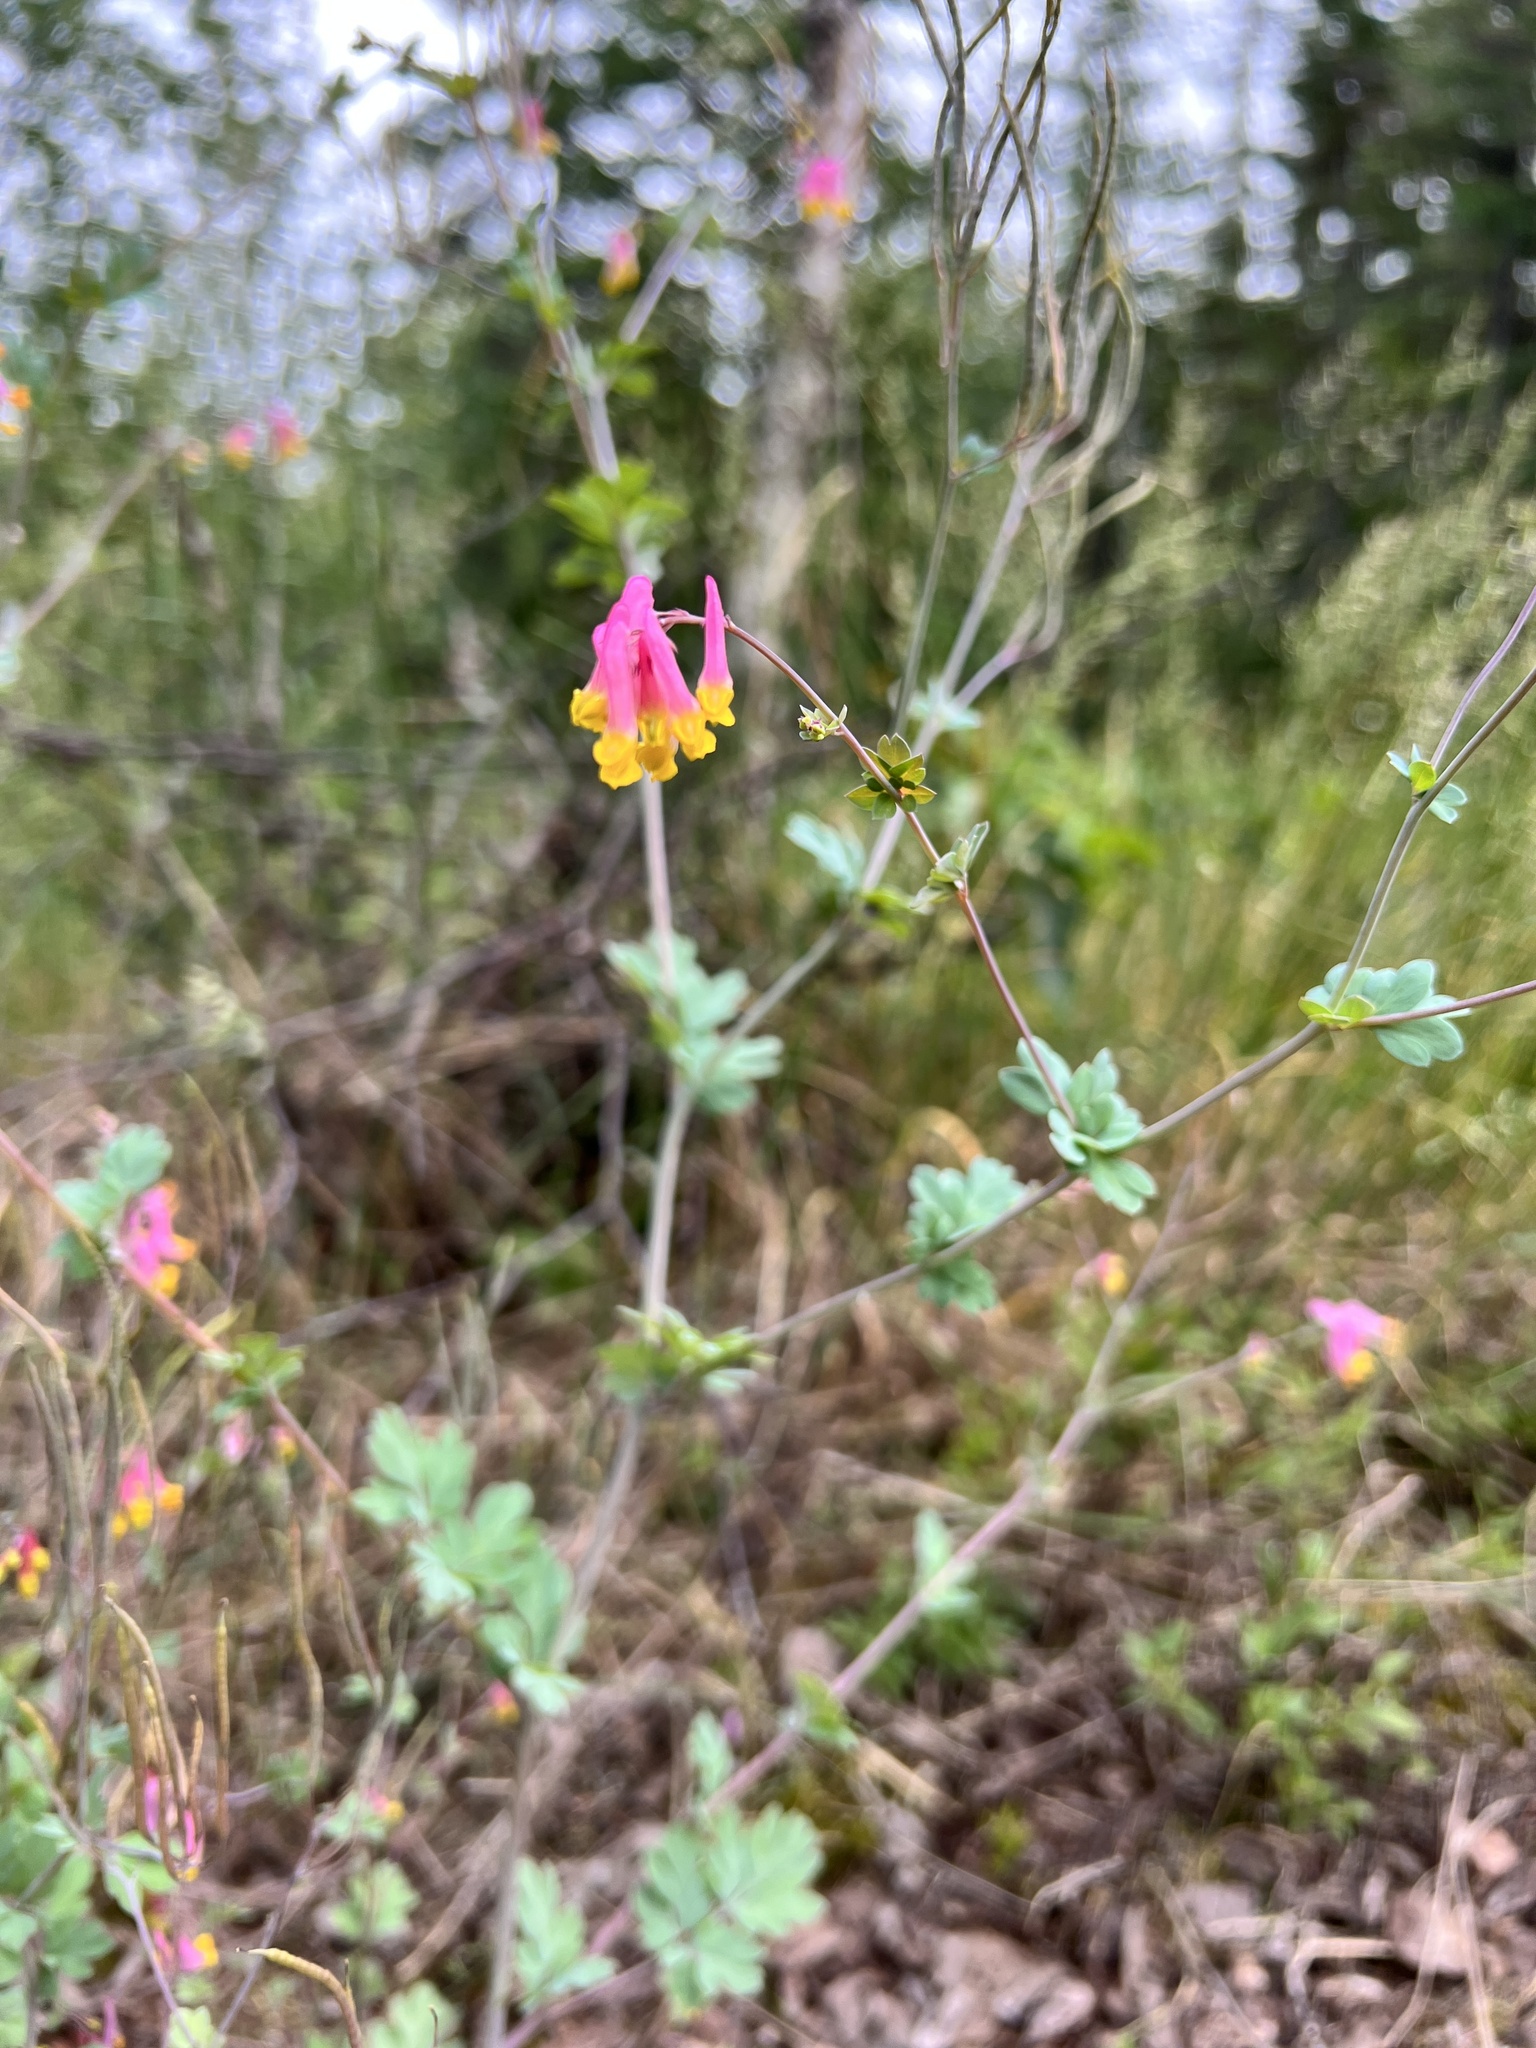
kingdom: Plantae
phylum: Tracheophyta
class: Magnoliopsida
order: Ranunculales
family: Papaveraceae
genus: Capnoides
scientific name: Capnoides sempervirens
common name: Rock harlequin
